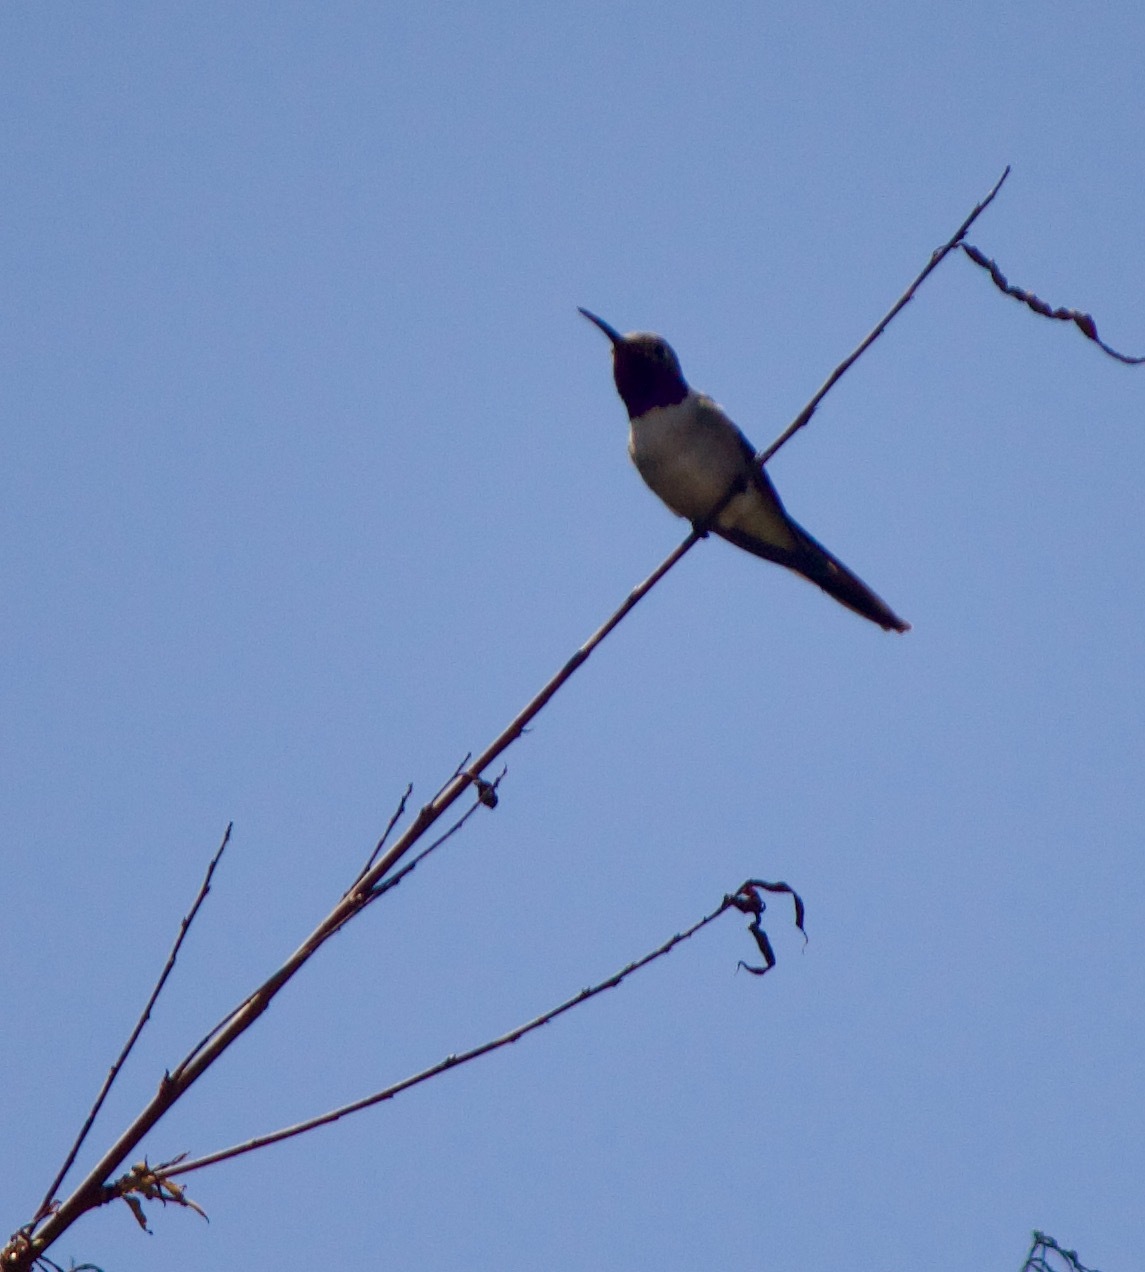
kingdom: Animalia
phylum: Chordata
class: Aves
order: Apodiformes
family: Trochilidae
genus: Rhodopis
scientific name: Rhodopis vesper
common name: Oasis hummingbird
